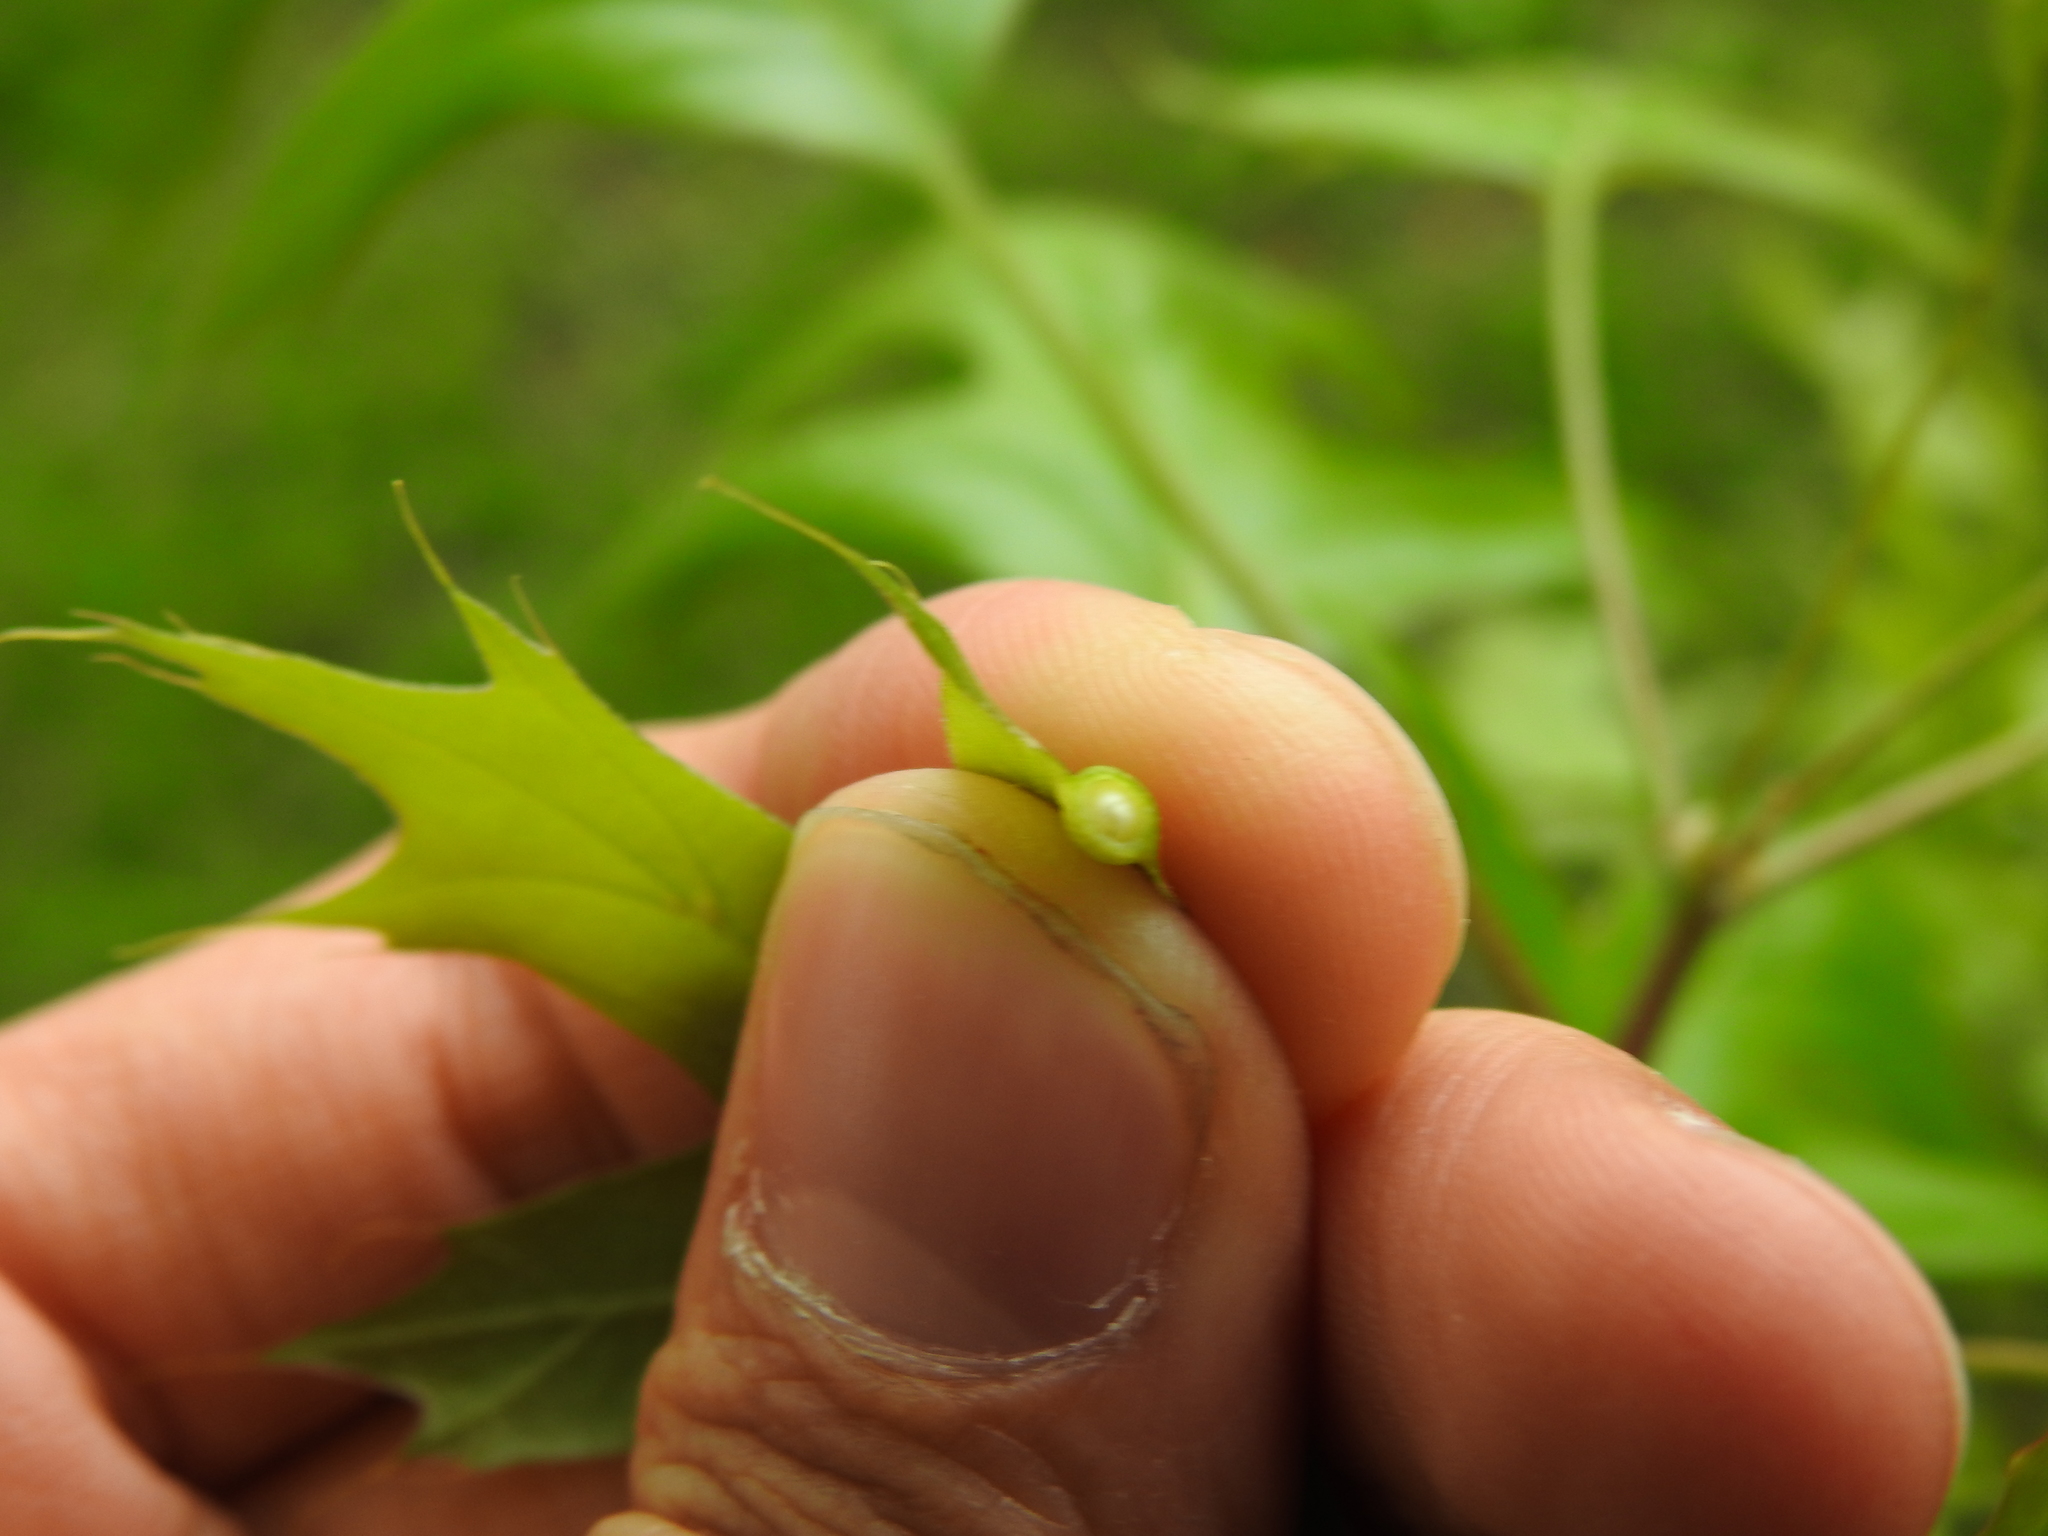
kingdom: Animalia
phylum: Arthropoda
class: Insecta
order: Hymenoptera
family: Cynipidae
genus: Dryocosmus
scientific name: Dryocosmus
